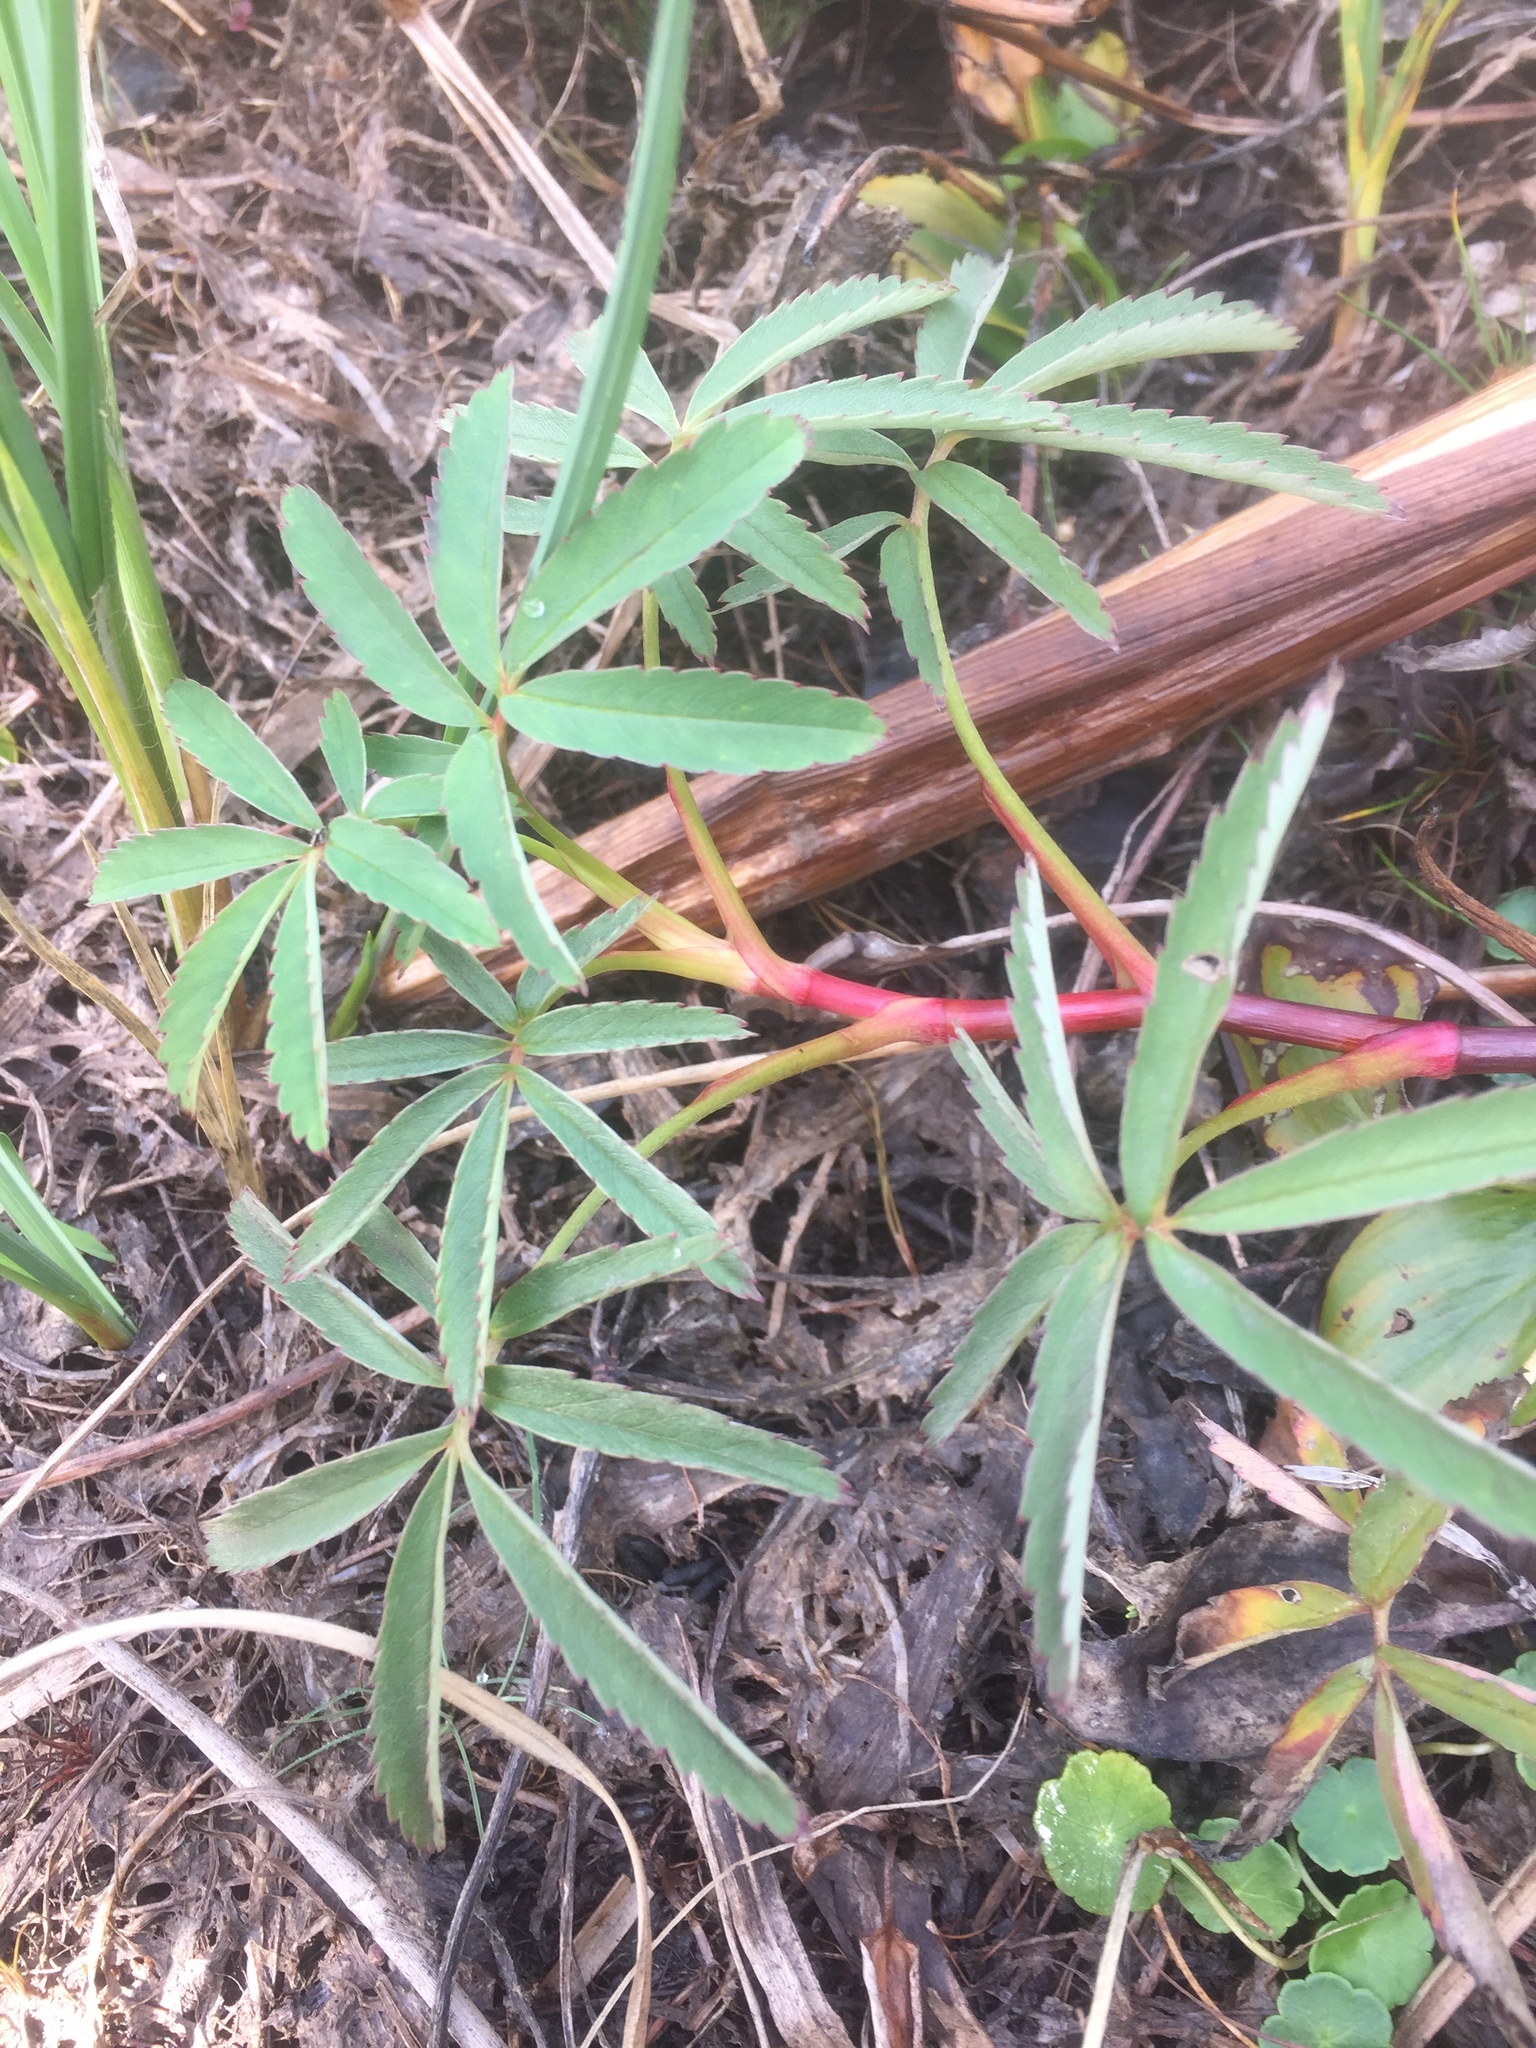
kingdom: Plantae
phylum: Tracheophyta
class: Magnoliopsida
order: Rosales
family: Rosaceae
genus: Comarum
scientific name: Comarum palustre
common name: Marsh cinquefoil
